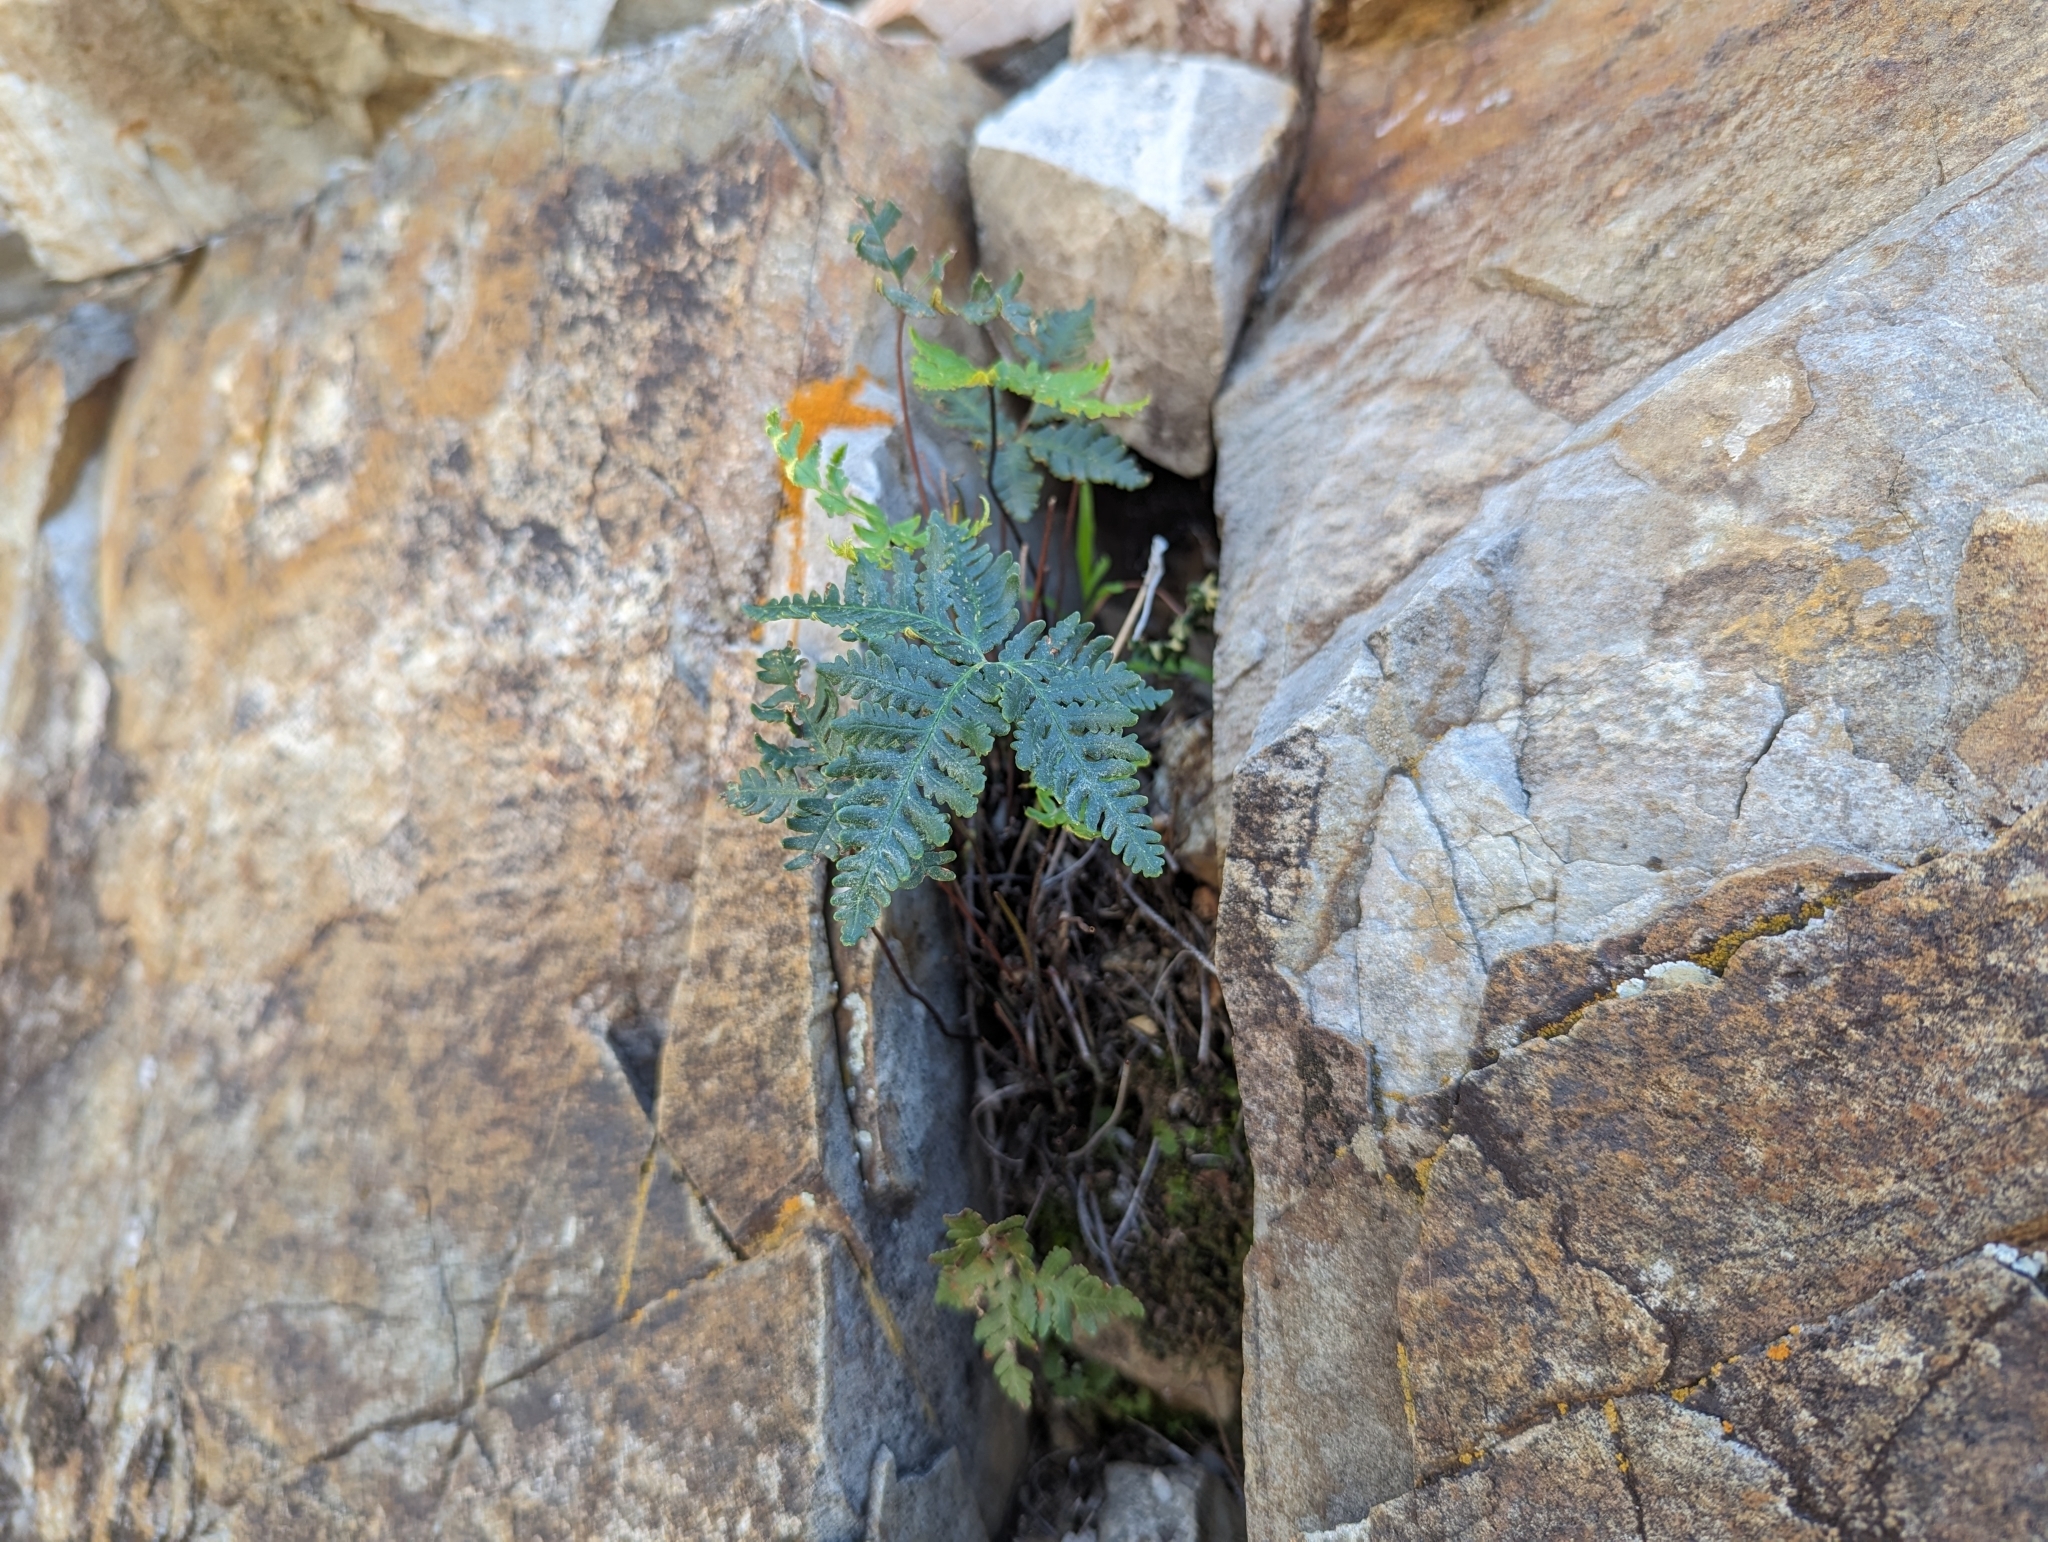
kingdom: Plantae
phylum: Tracheophyta
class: Polypodiopsida
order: Polypodiales
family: Pteridaceae
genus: Notholaena
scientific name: Notholaena standleyi
